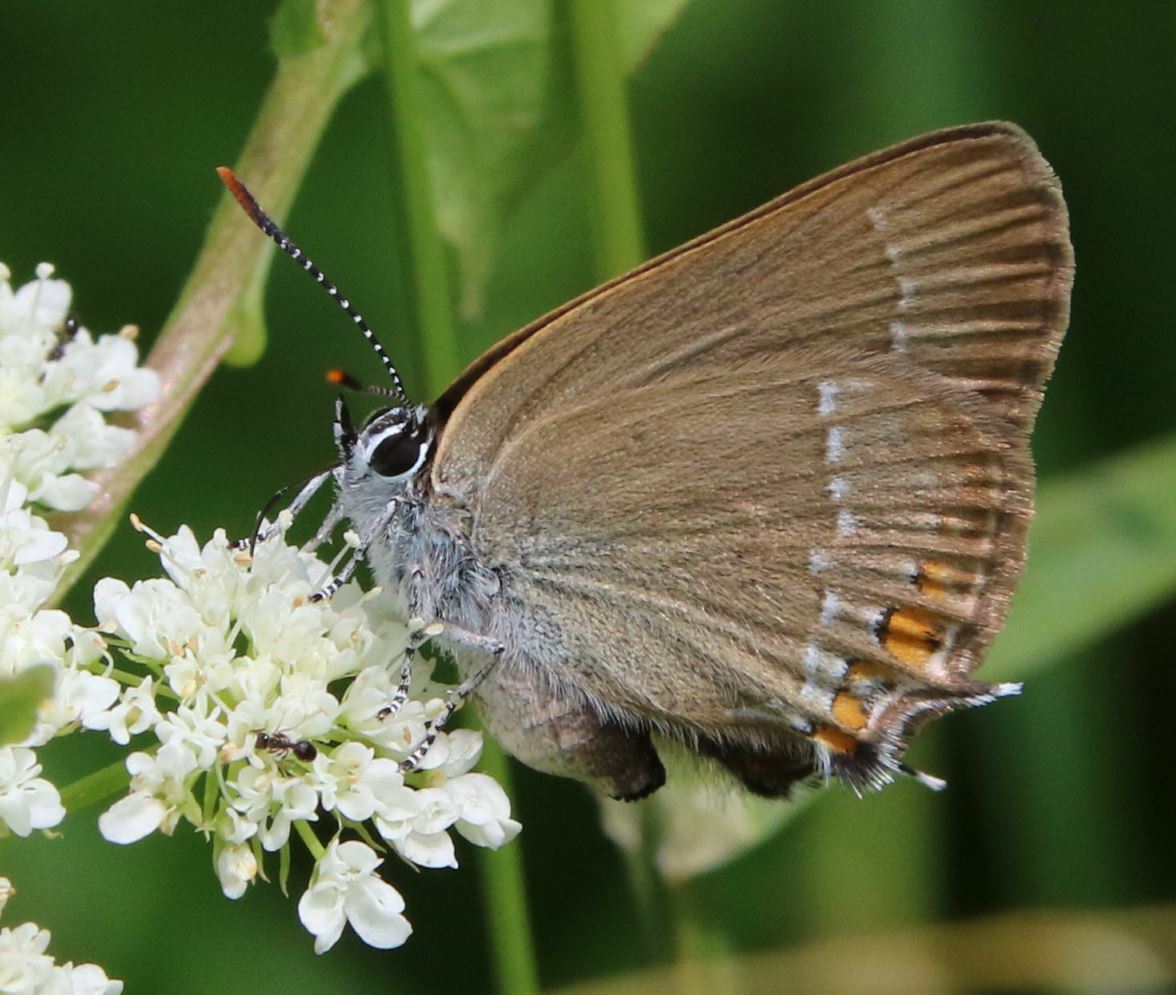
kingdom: Animalia
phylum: Arthropoda
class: Insecta
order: Lepidoptera
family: Lycaenidae
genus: Strymon
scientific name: Strymon acaciae
